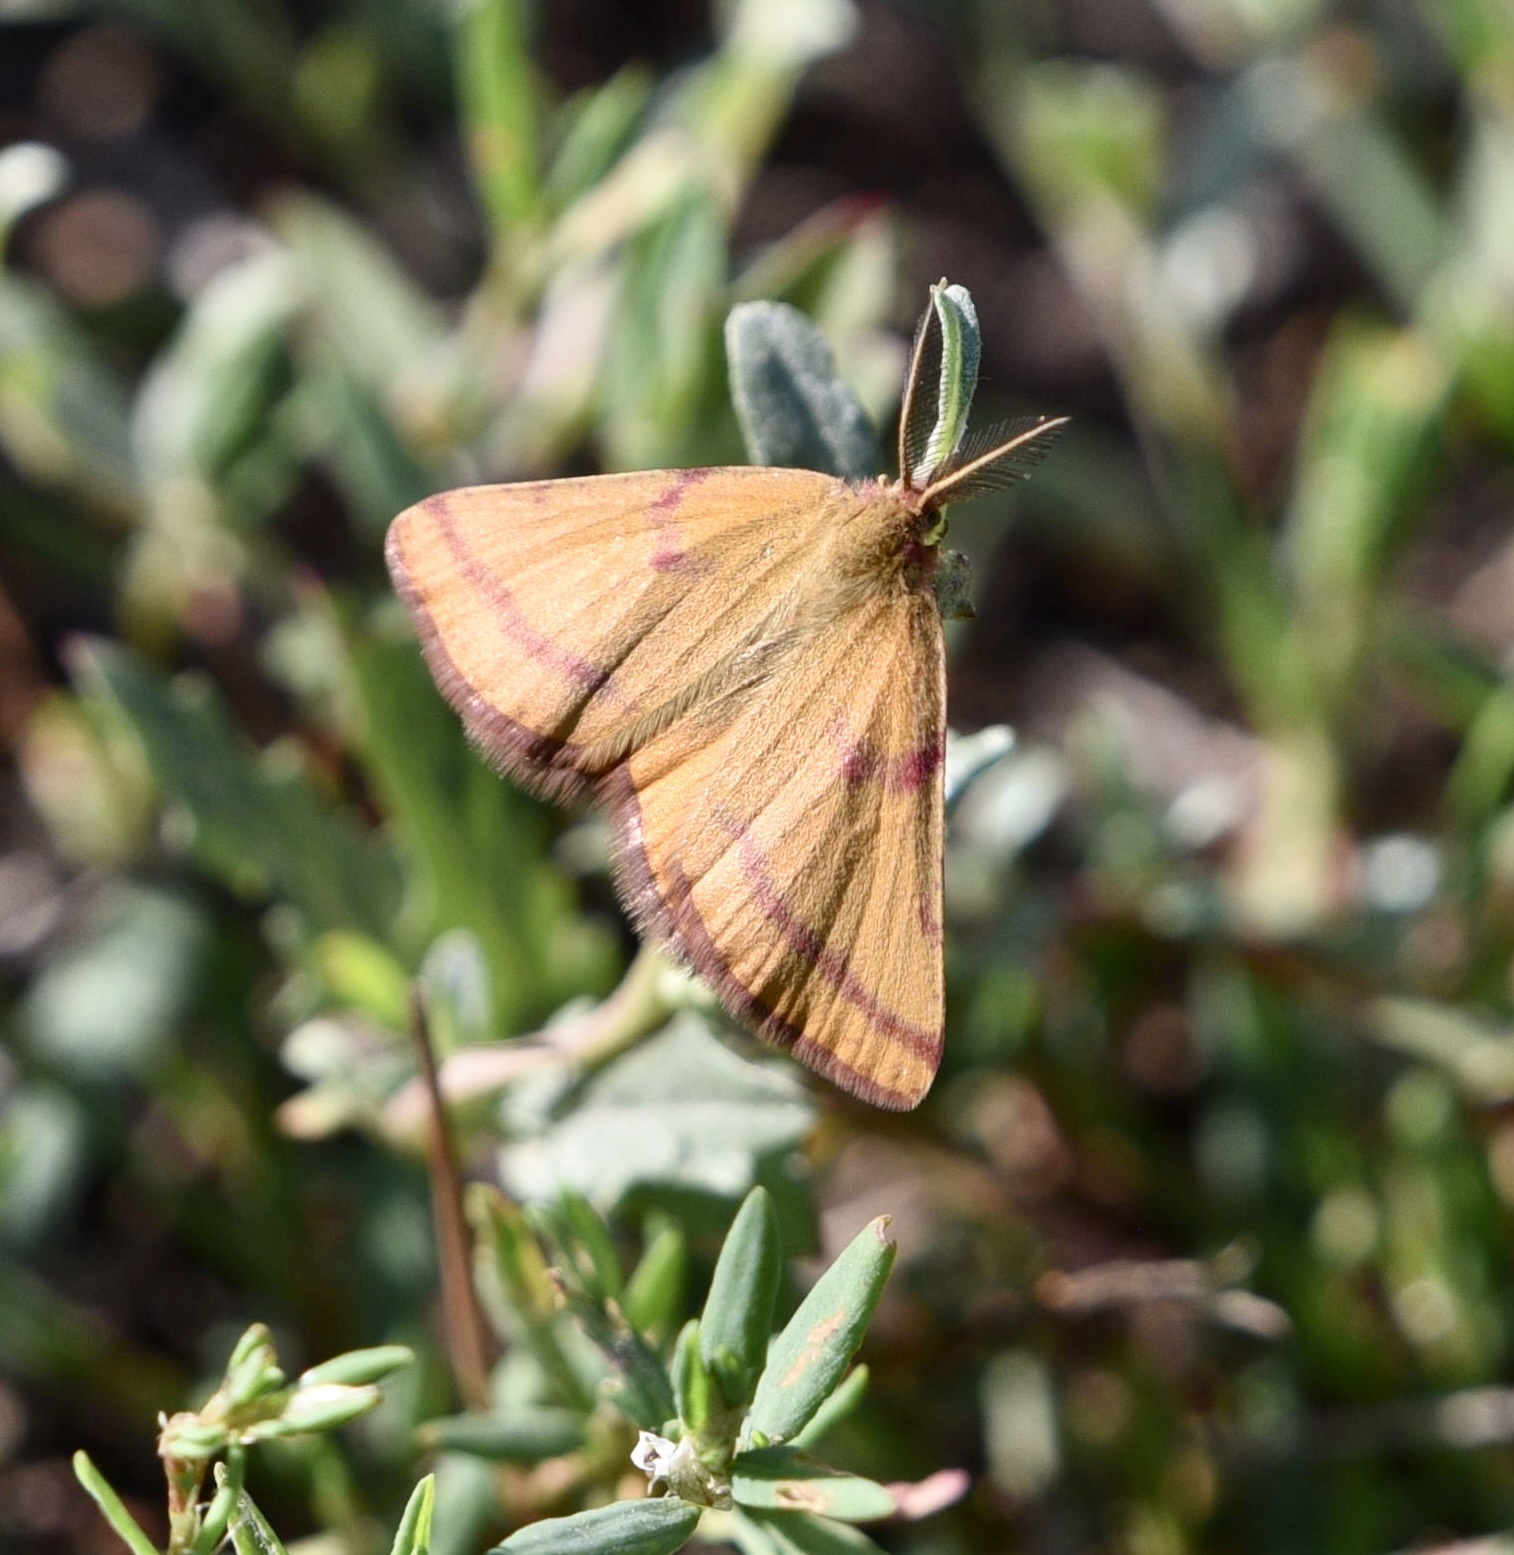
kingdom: Animalia
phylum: Arthropoda
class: Insecta
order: Lepidoptera
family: Geometridae
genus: Lythria
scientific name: Lythria purpuraria
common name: Purple-barred yellow
